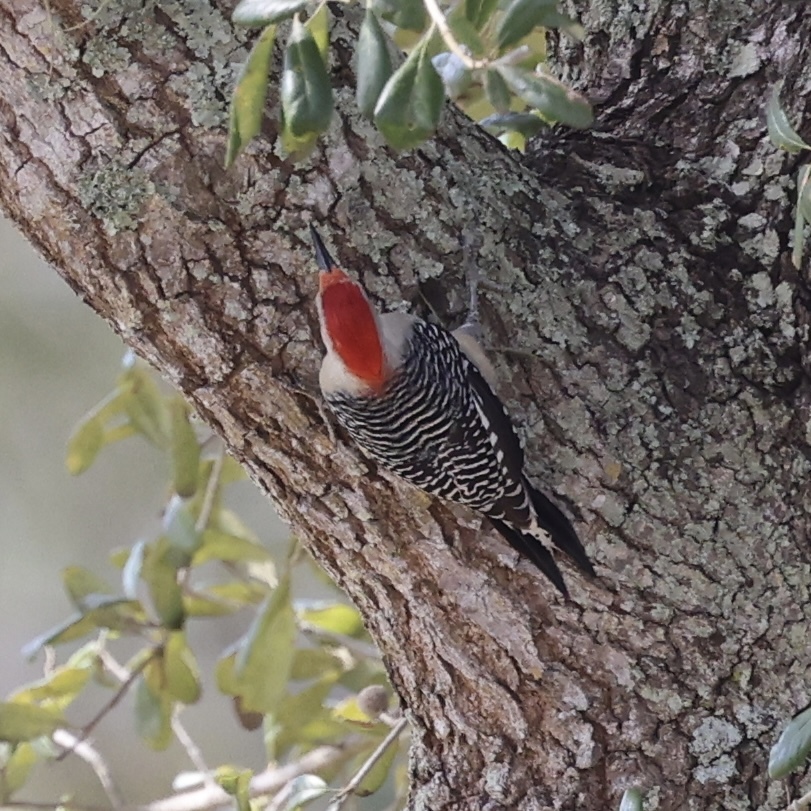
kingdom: Animalia
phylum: Chordata
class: Aves
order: Piciformes
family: Picidae
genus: Melanerpes
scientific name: Melanerpes carolinus
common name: Red-bellied woodpecker
